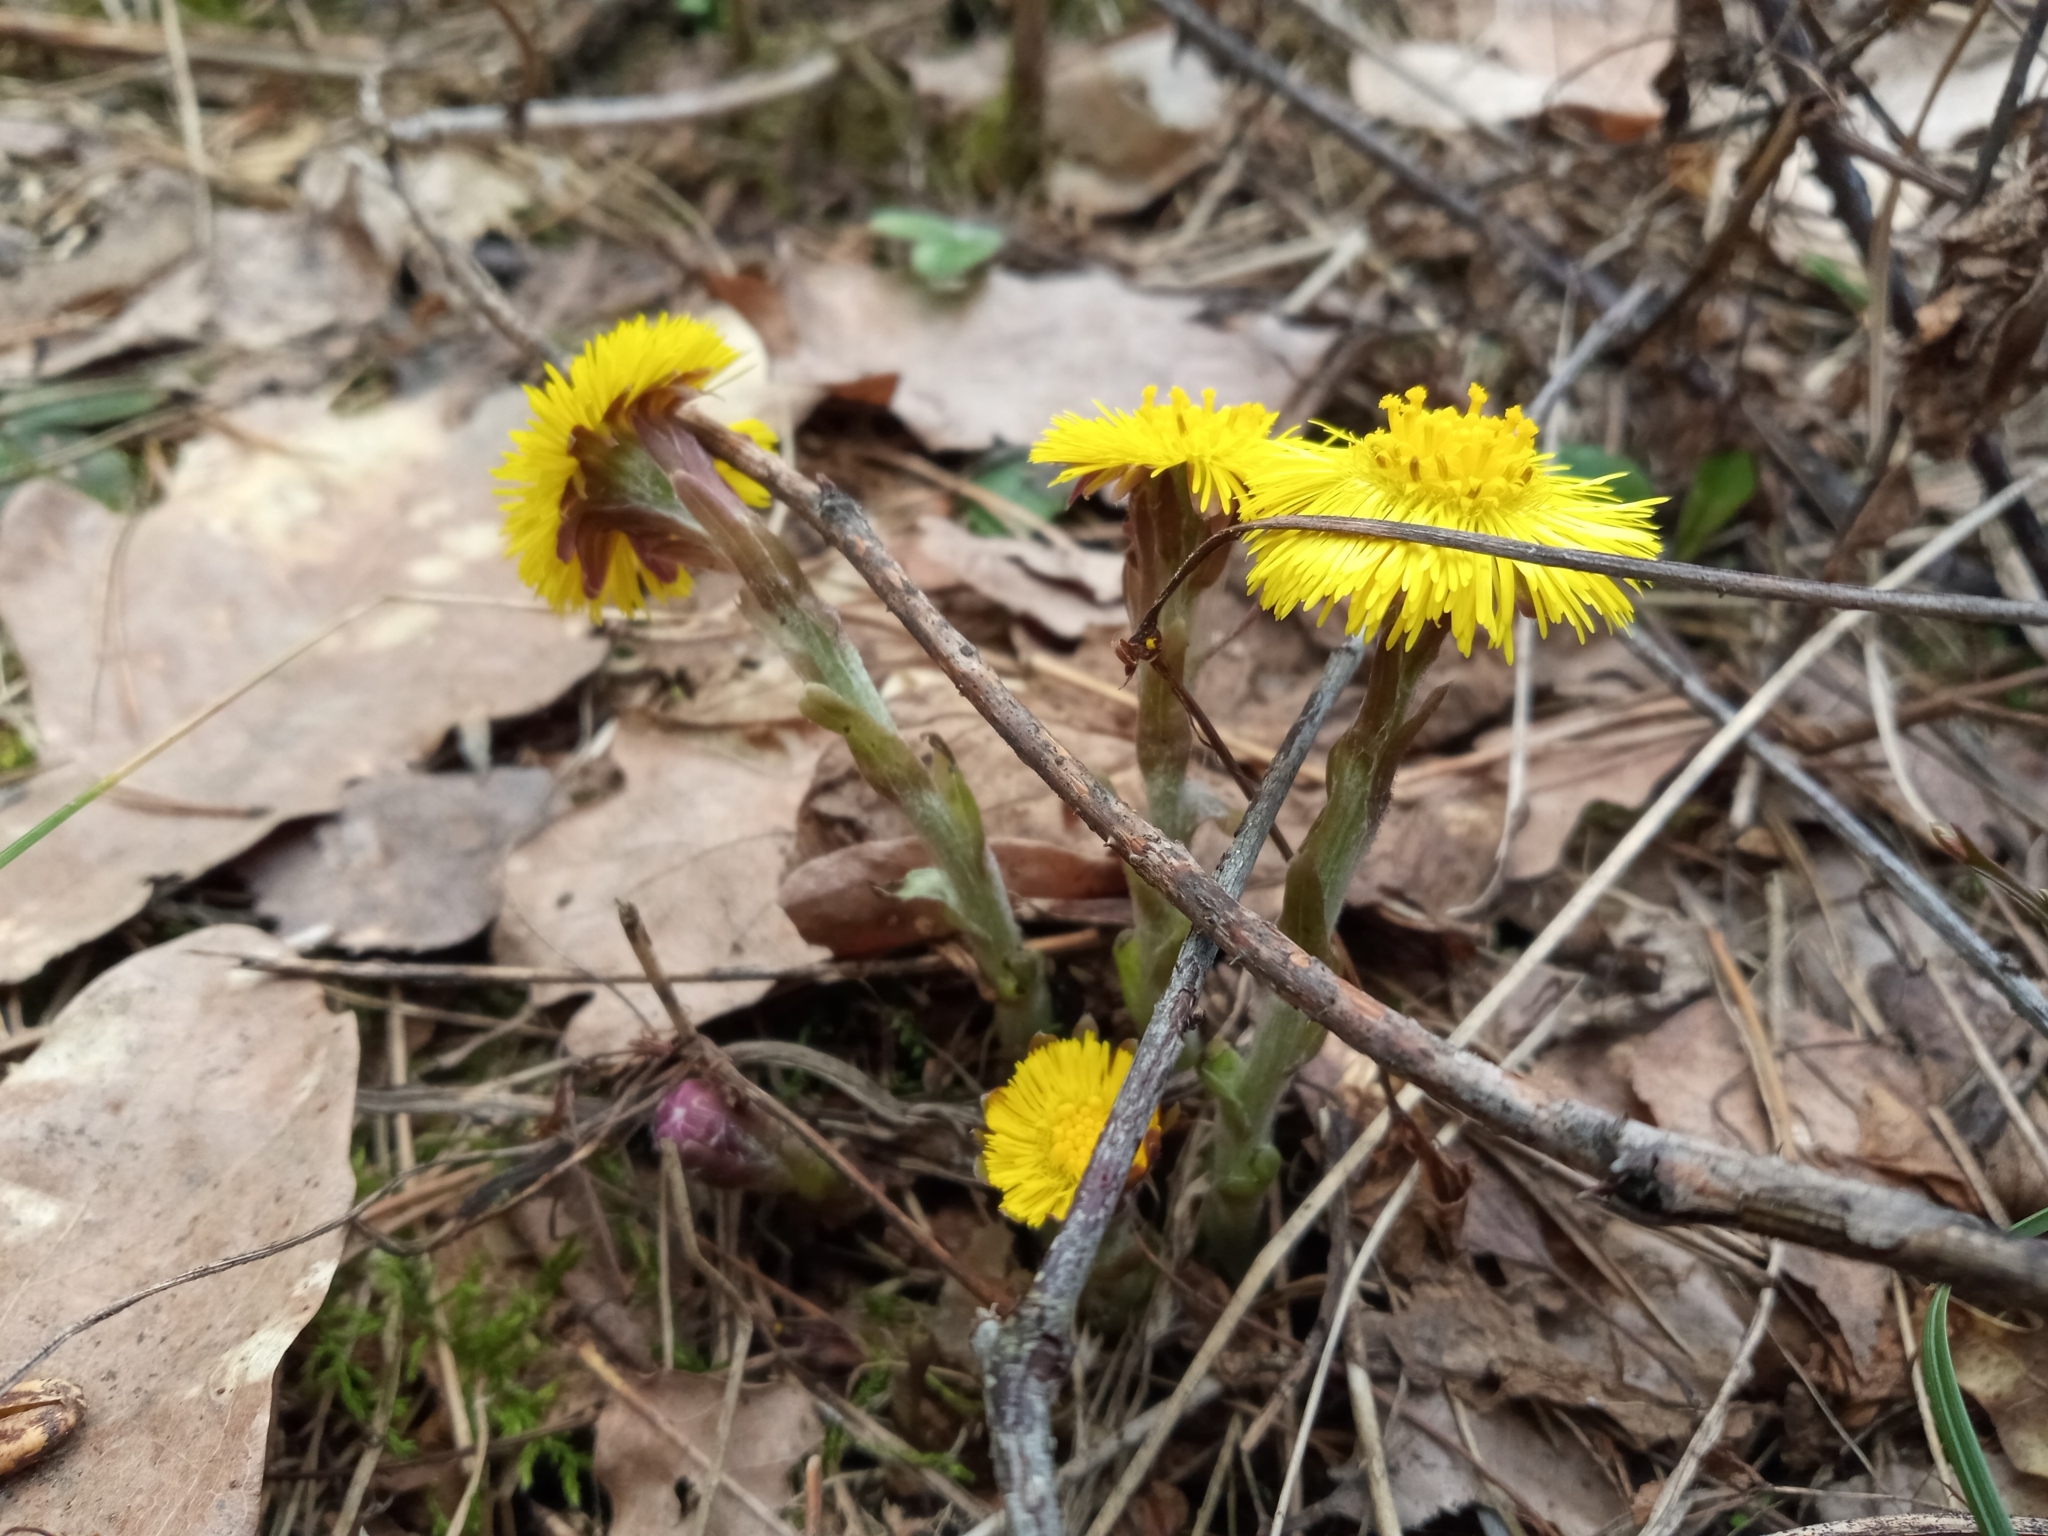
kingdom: Plantae
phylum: Tracheophyta
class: Magnoliopsida
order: Asterales
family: Asteraceae
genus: Tussilago
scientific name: Tussilago farfara
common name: Coltsfoot
